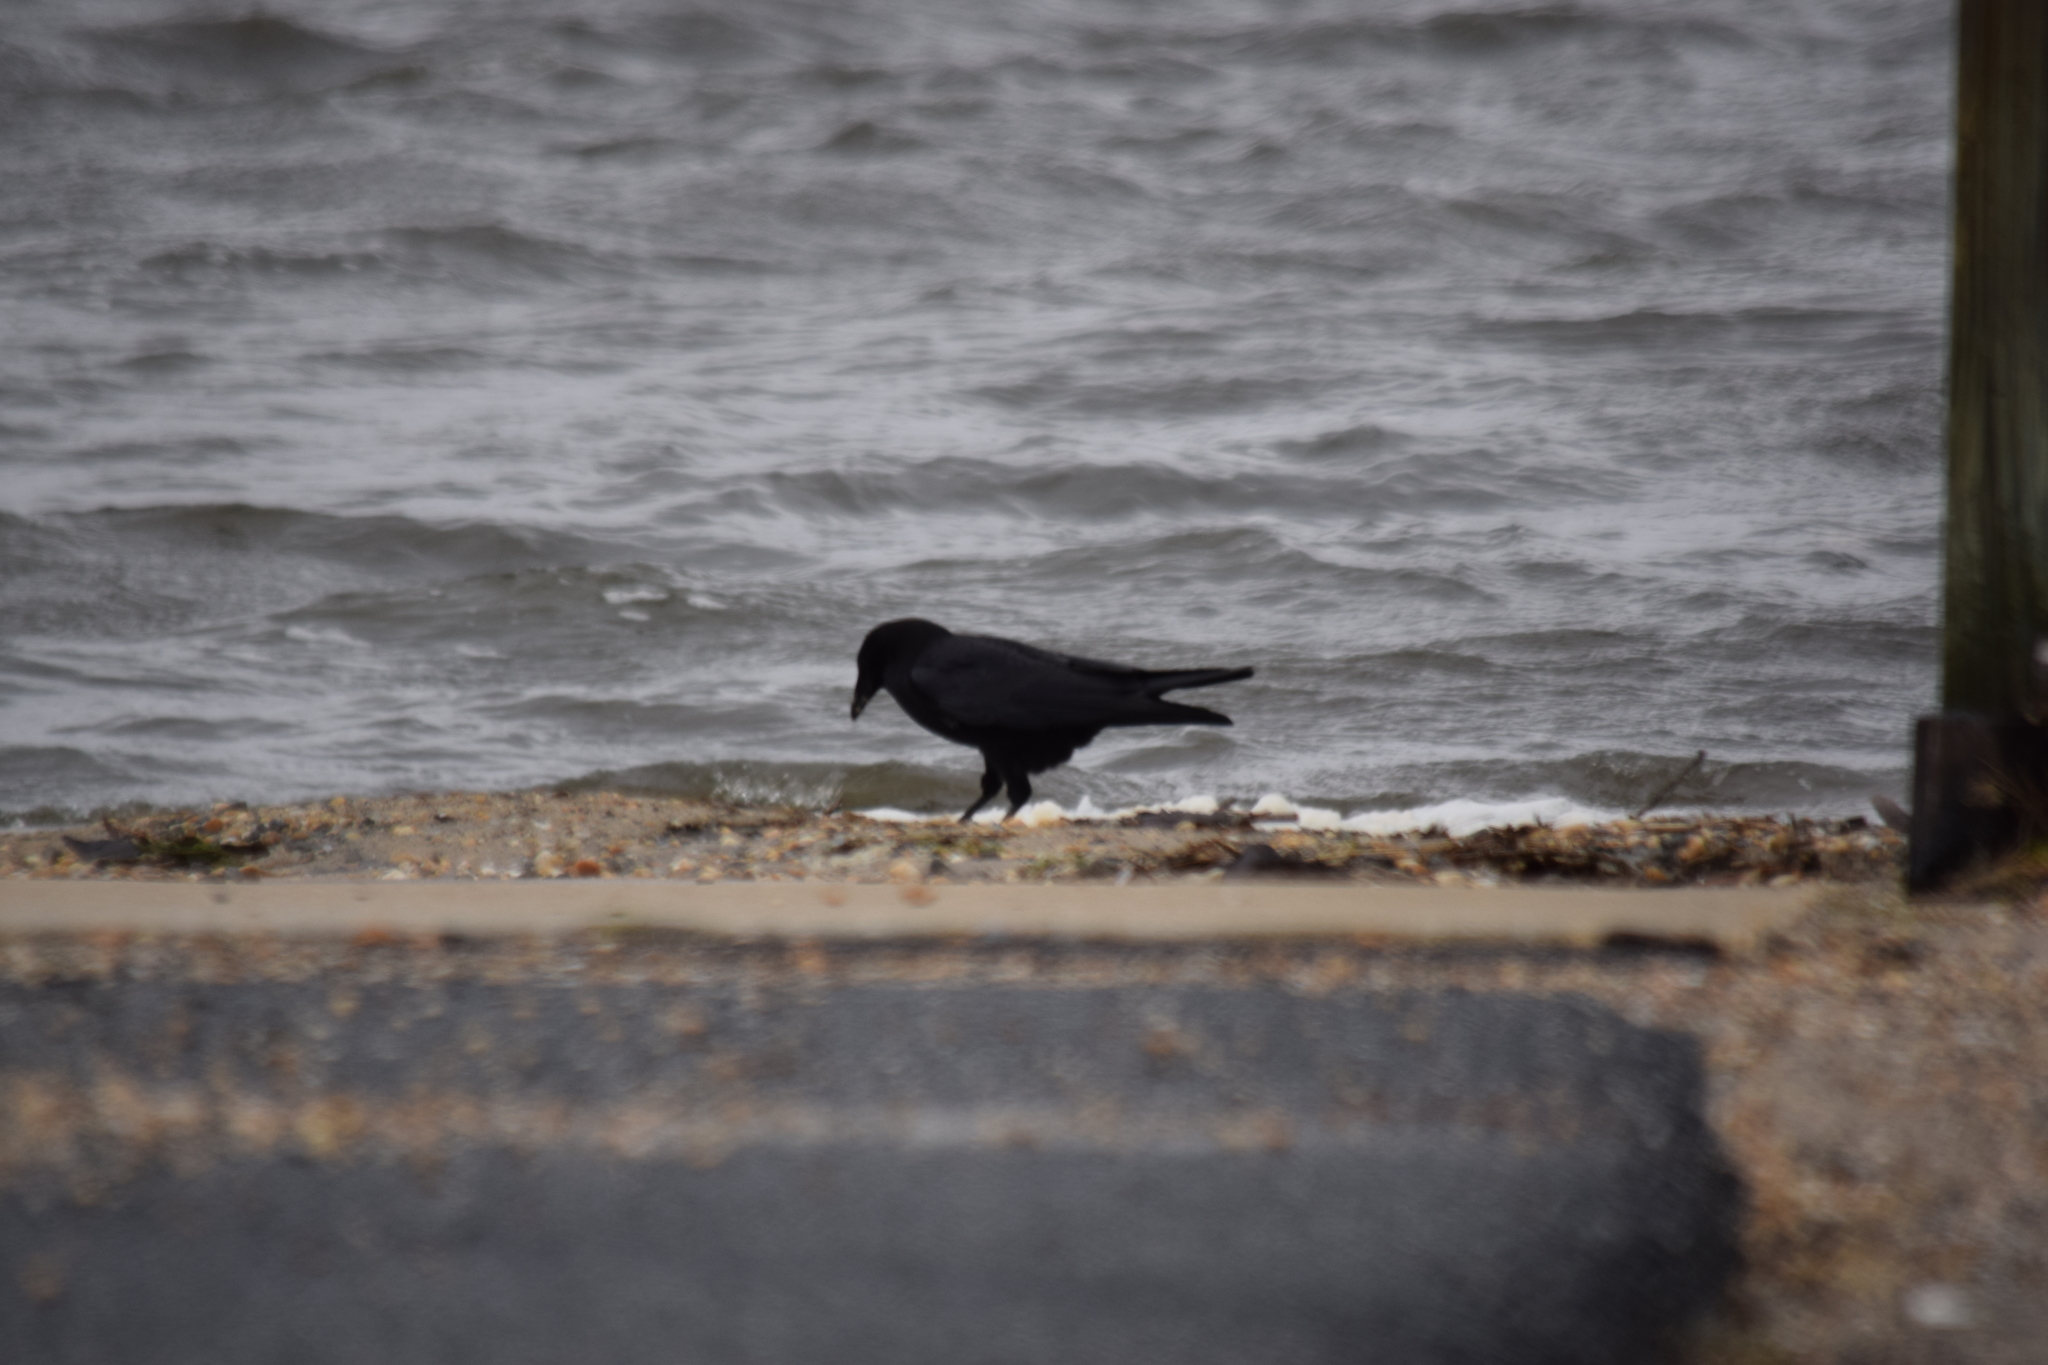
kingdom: Animalia
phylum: Chordata
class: Aves
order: Passeriformes
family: Corvidae
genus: Corvus
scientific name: Corvus
